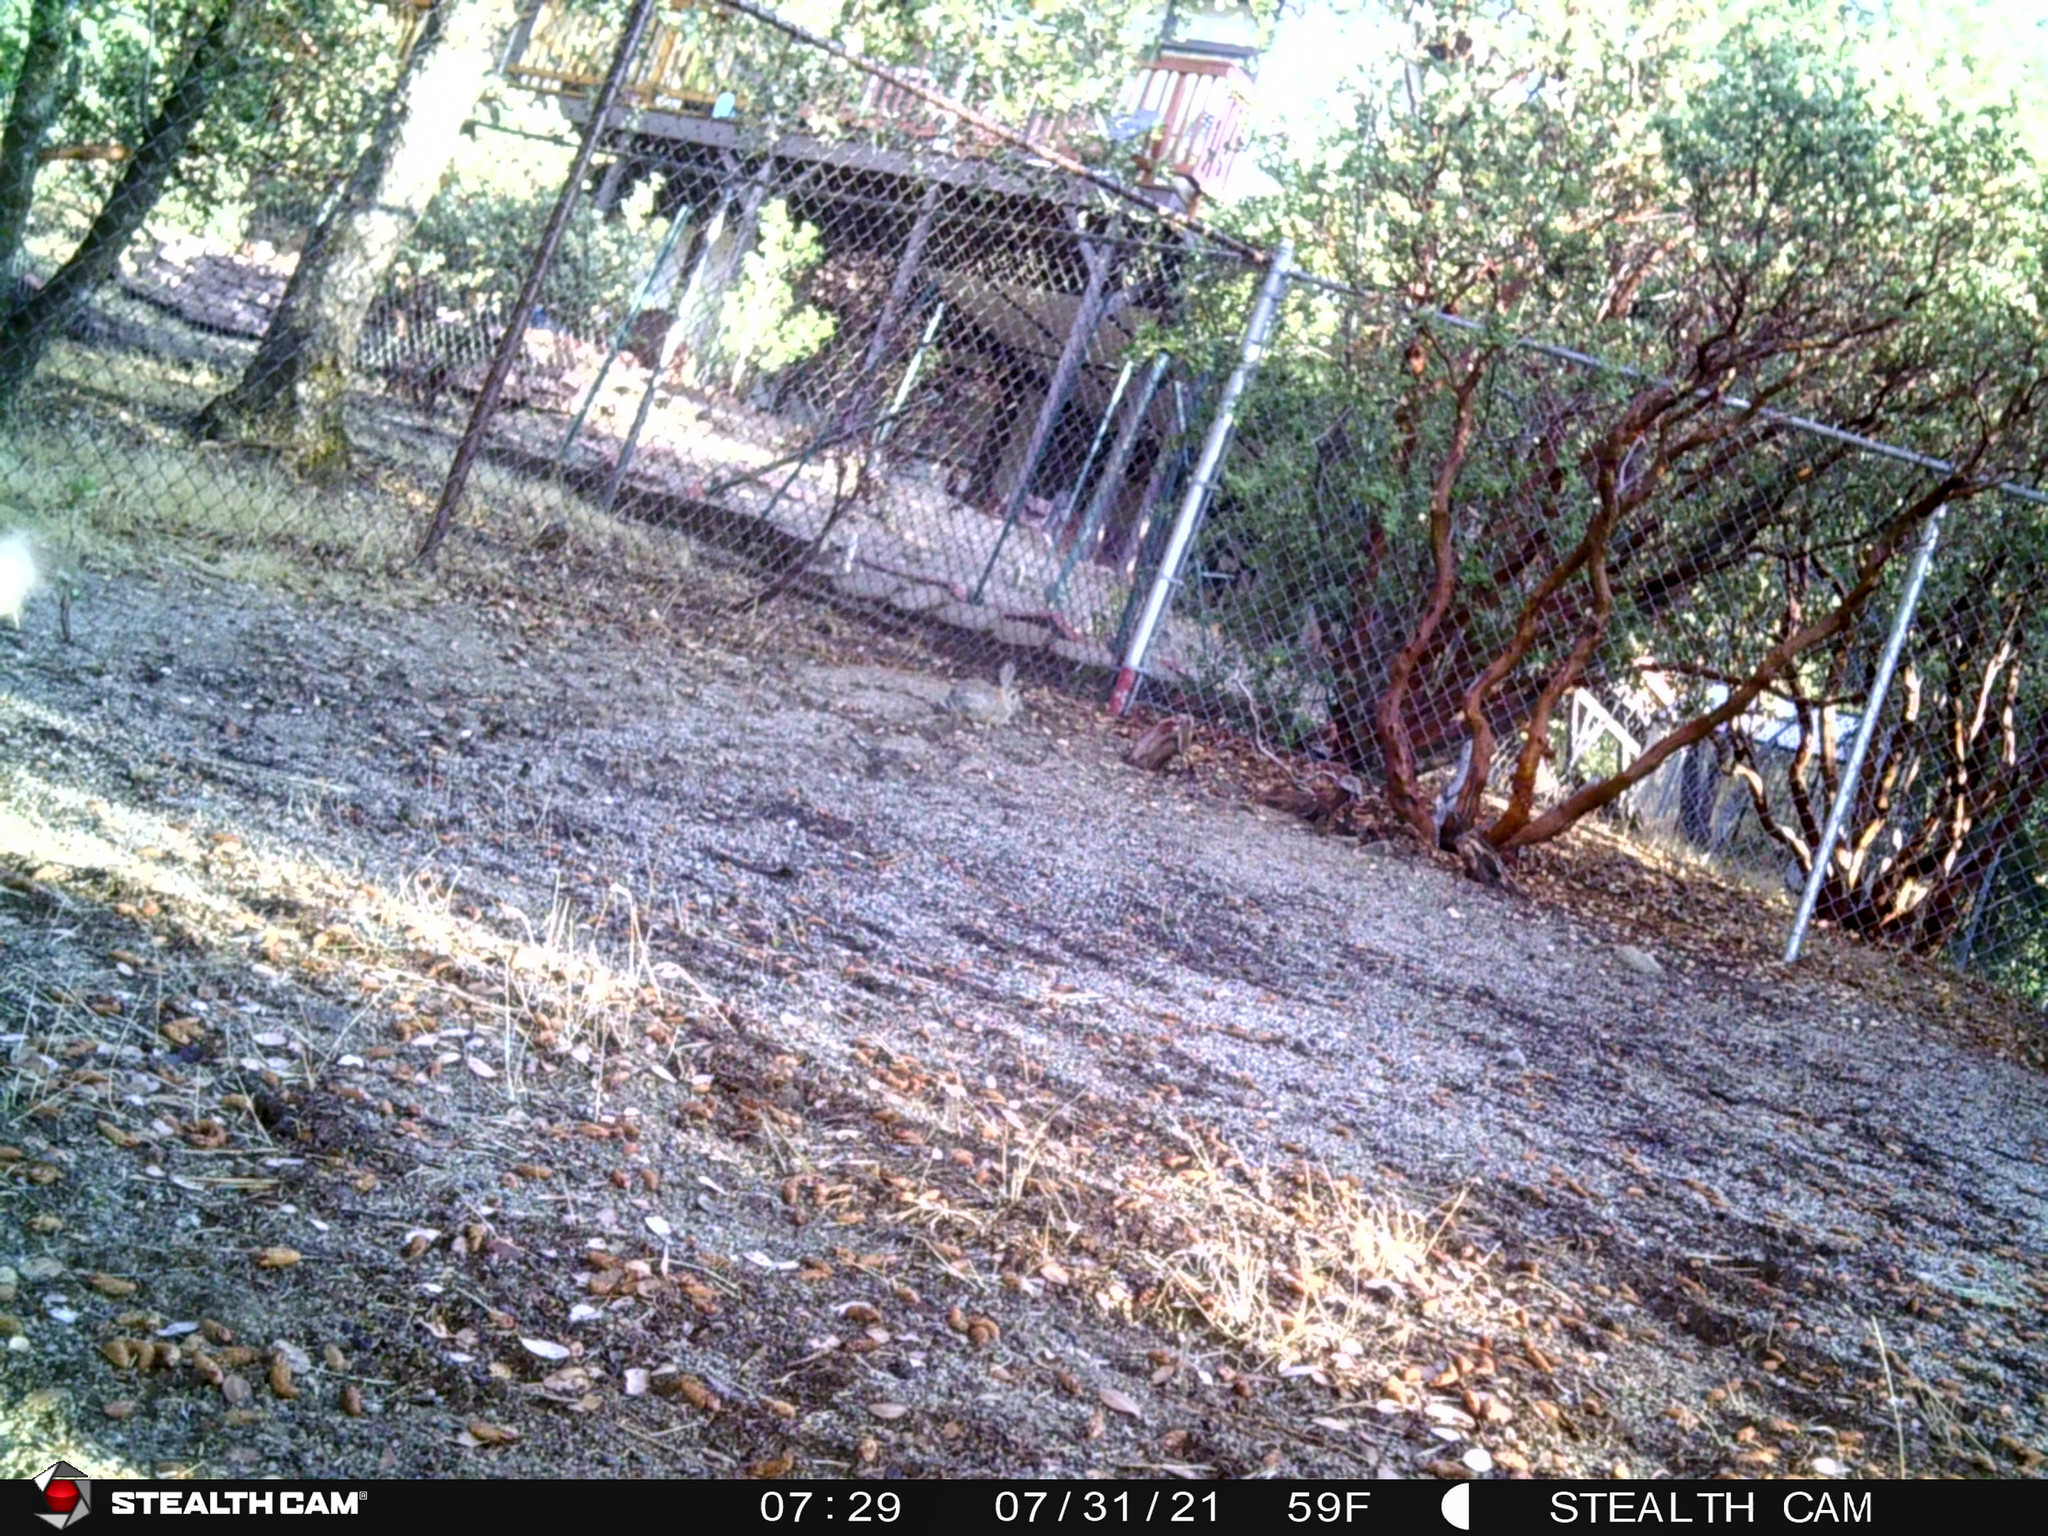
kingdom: Animalia
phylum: Chordata
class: Mammalia
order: Lagomorpha
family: Leporidae
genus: Sylvilagus
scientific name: Sylvilagus audubonii
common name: Desert cottontail
